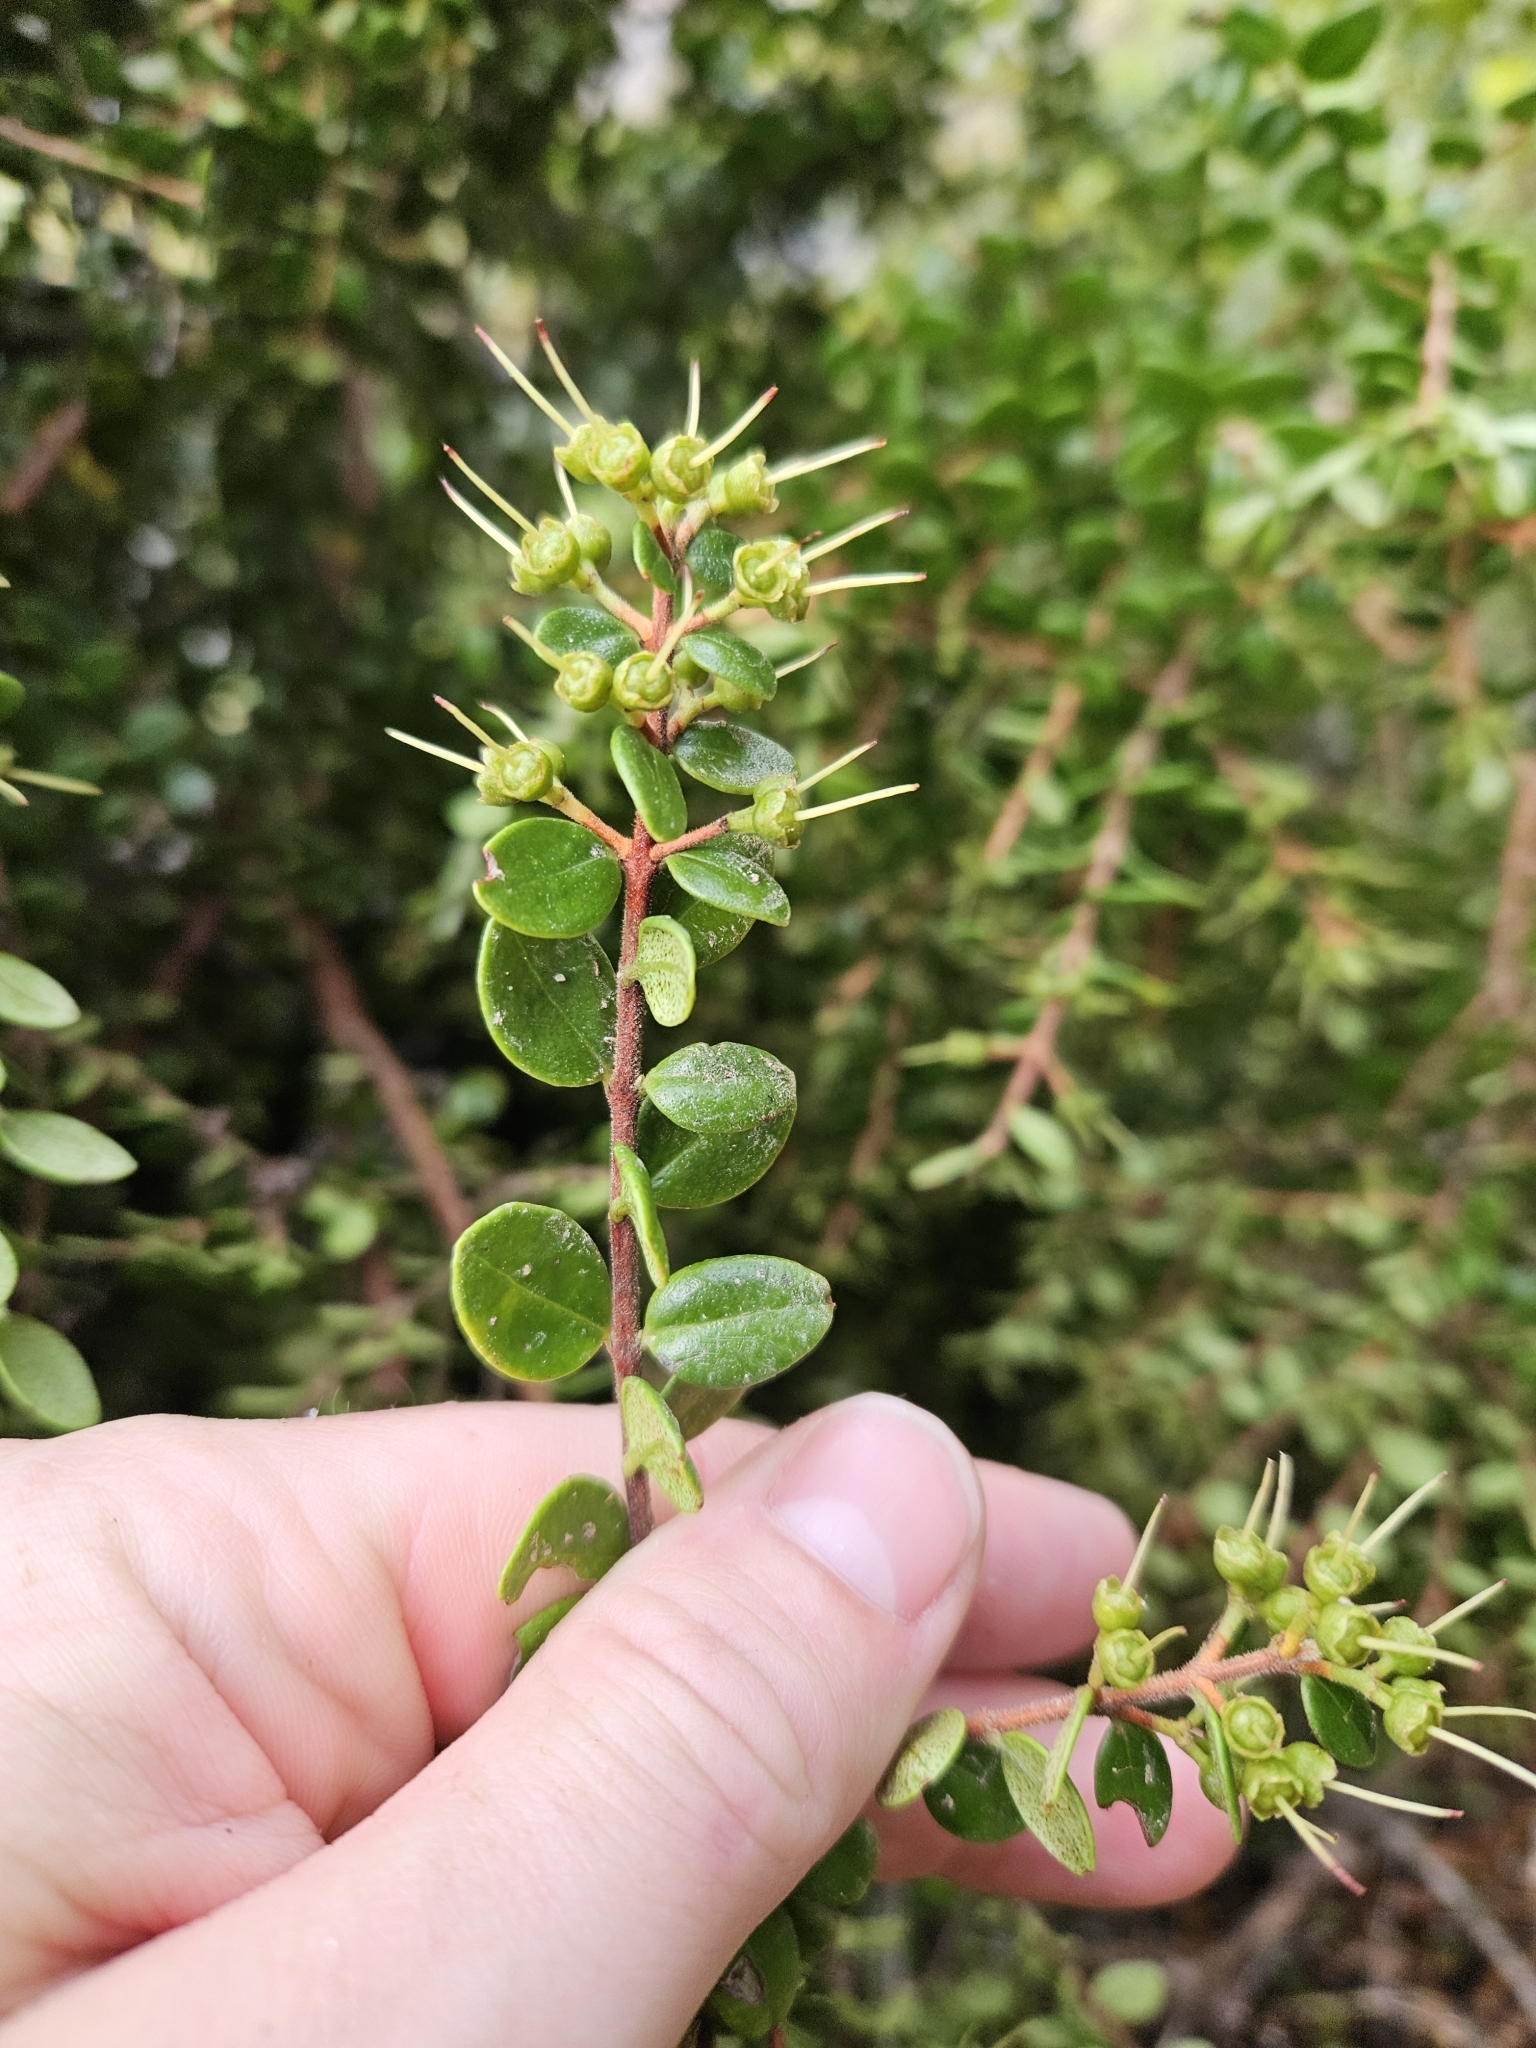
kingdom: Plantae
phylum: Tracheophyta
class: Magnoliopsida
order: Myrtales
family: Myrtaceae
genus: Metrosideros
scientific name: Metrosideros perforata
